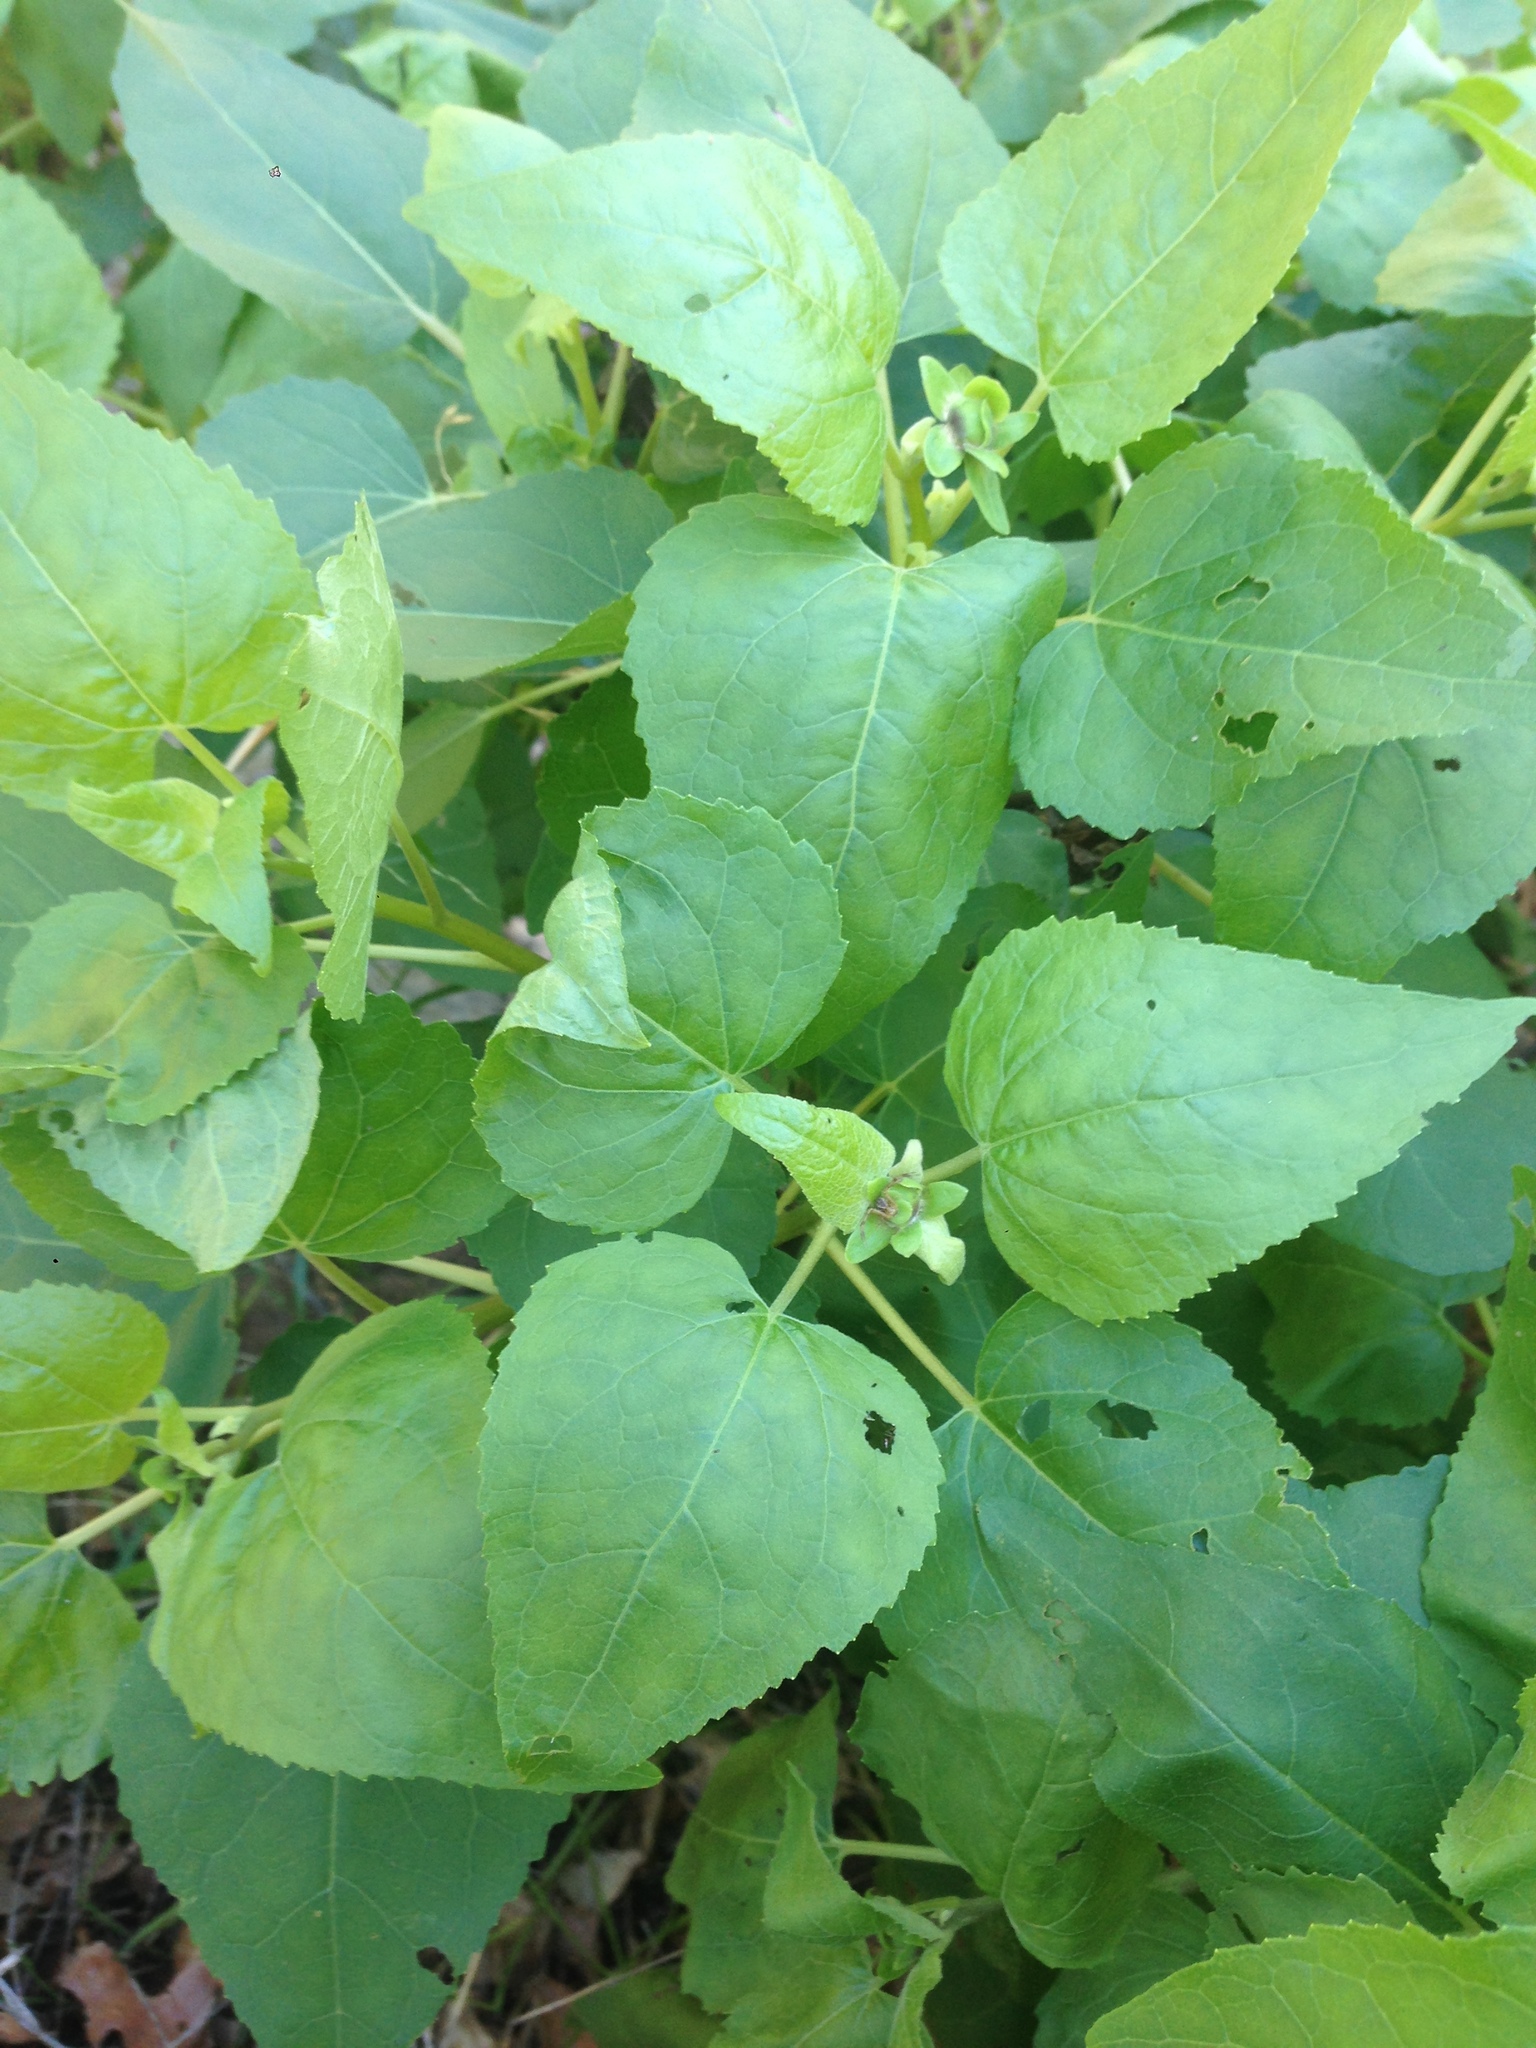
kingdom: Plantae
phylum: Tracheophyta
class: Magnoliopsida
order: Asterales
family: Asteraceae
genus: Venegasia
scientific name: Venegasia carpesioides
